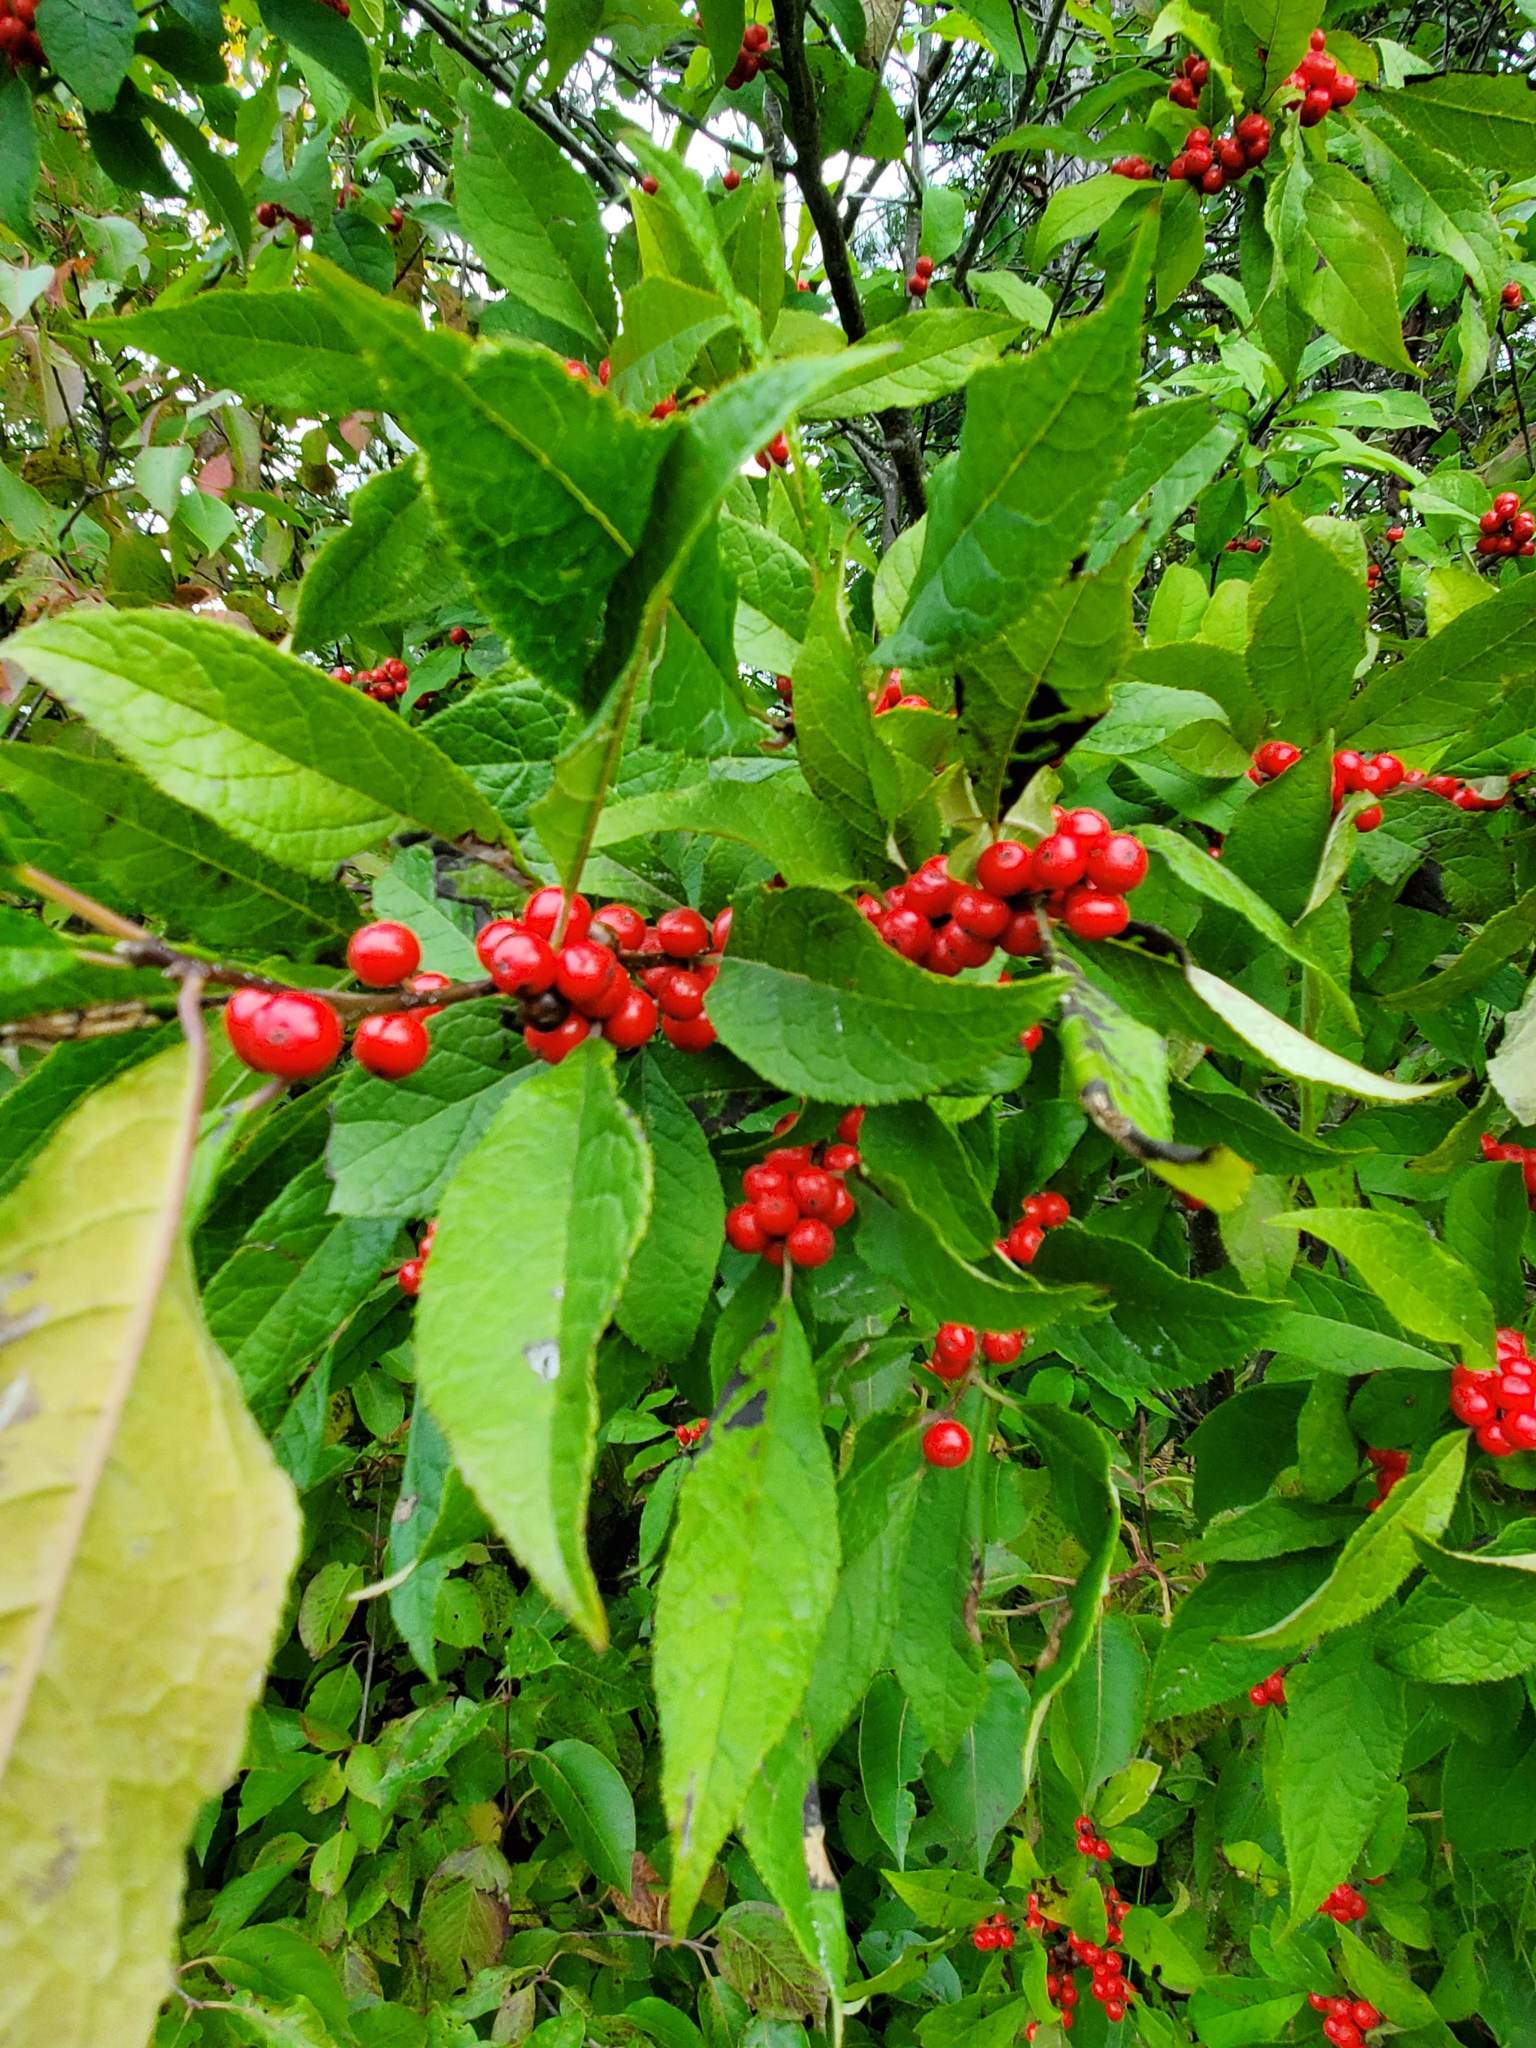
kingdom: Plantae
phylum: Tracheophyta
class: Magnoliopsida
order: Aquifoliales
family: Aquifoliaceae
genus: Ilex
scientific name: Ilex verticillata
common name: Virginia winterberry
